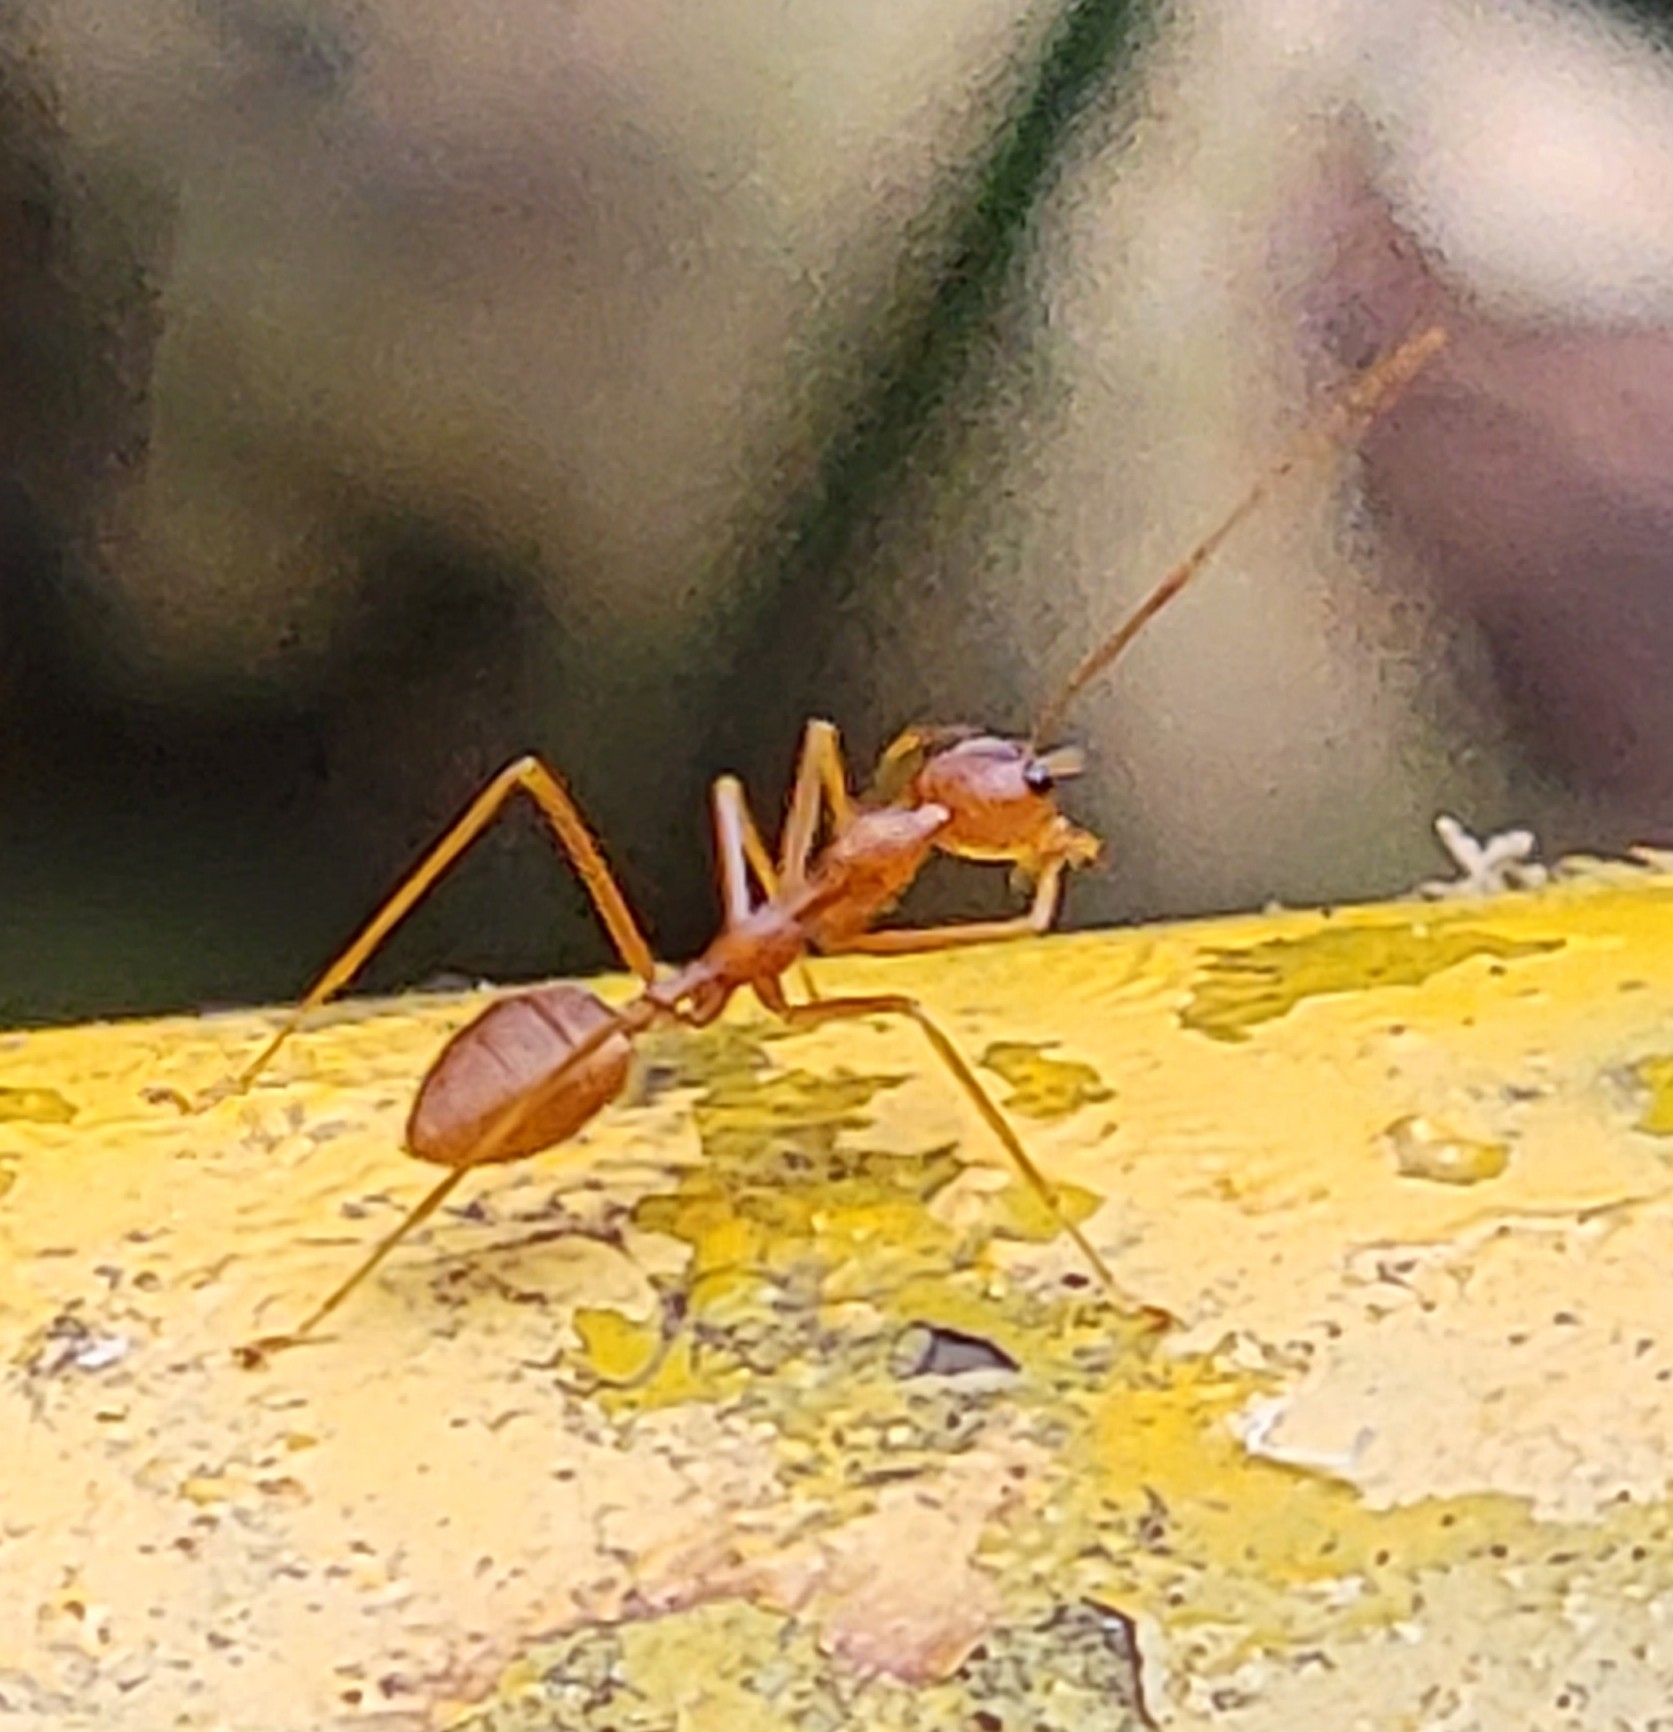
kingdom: Animalia
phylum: Arthropoda
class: Insecta
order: Hymenoptera
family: Formicidae
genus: Oecophylla
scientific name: Oecophylla smaragdina
